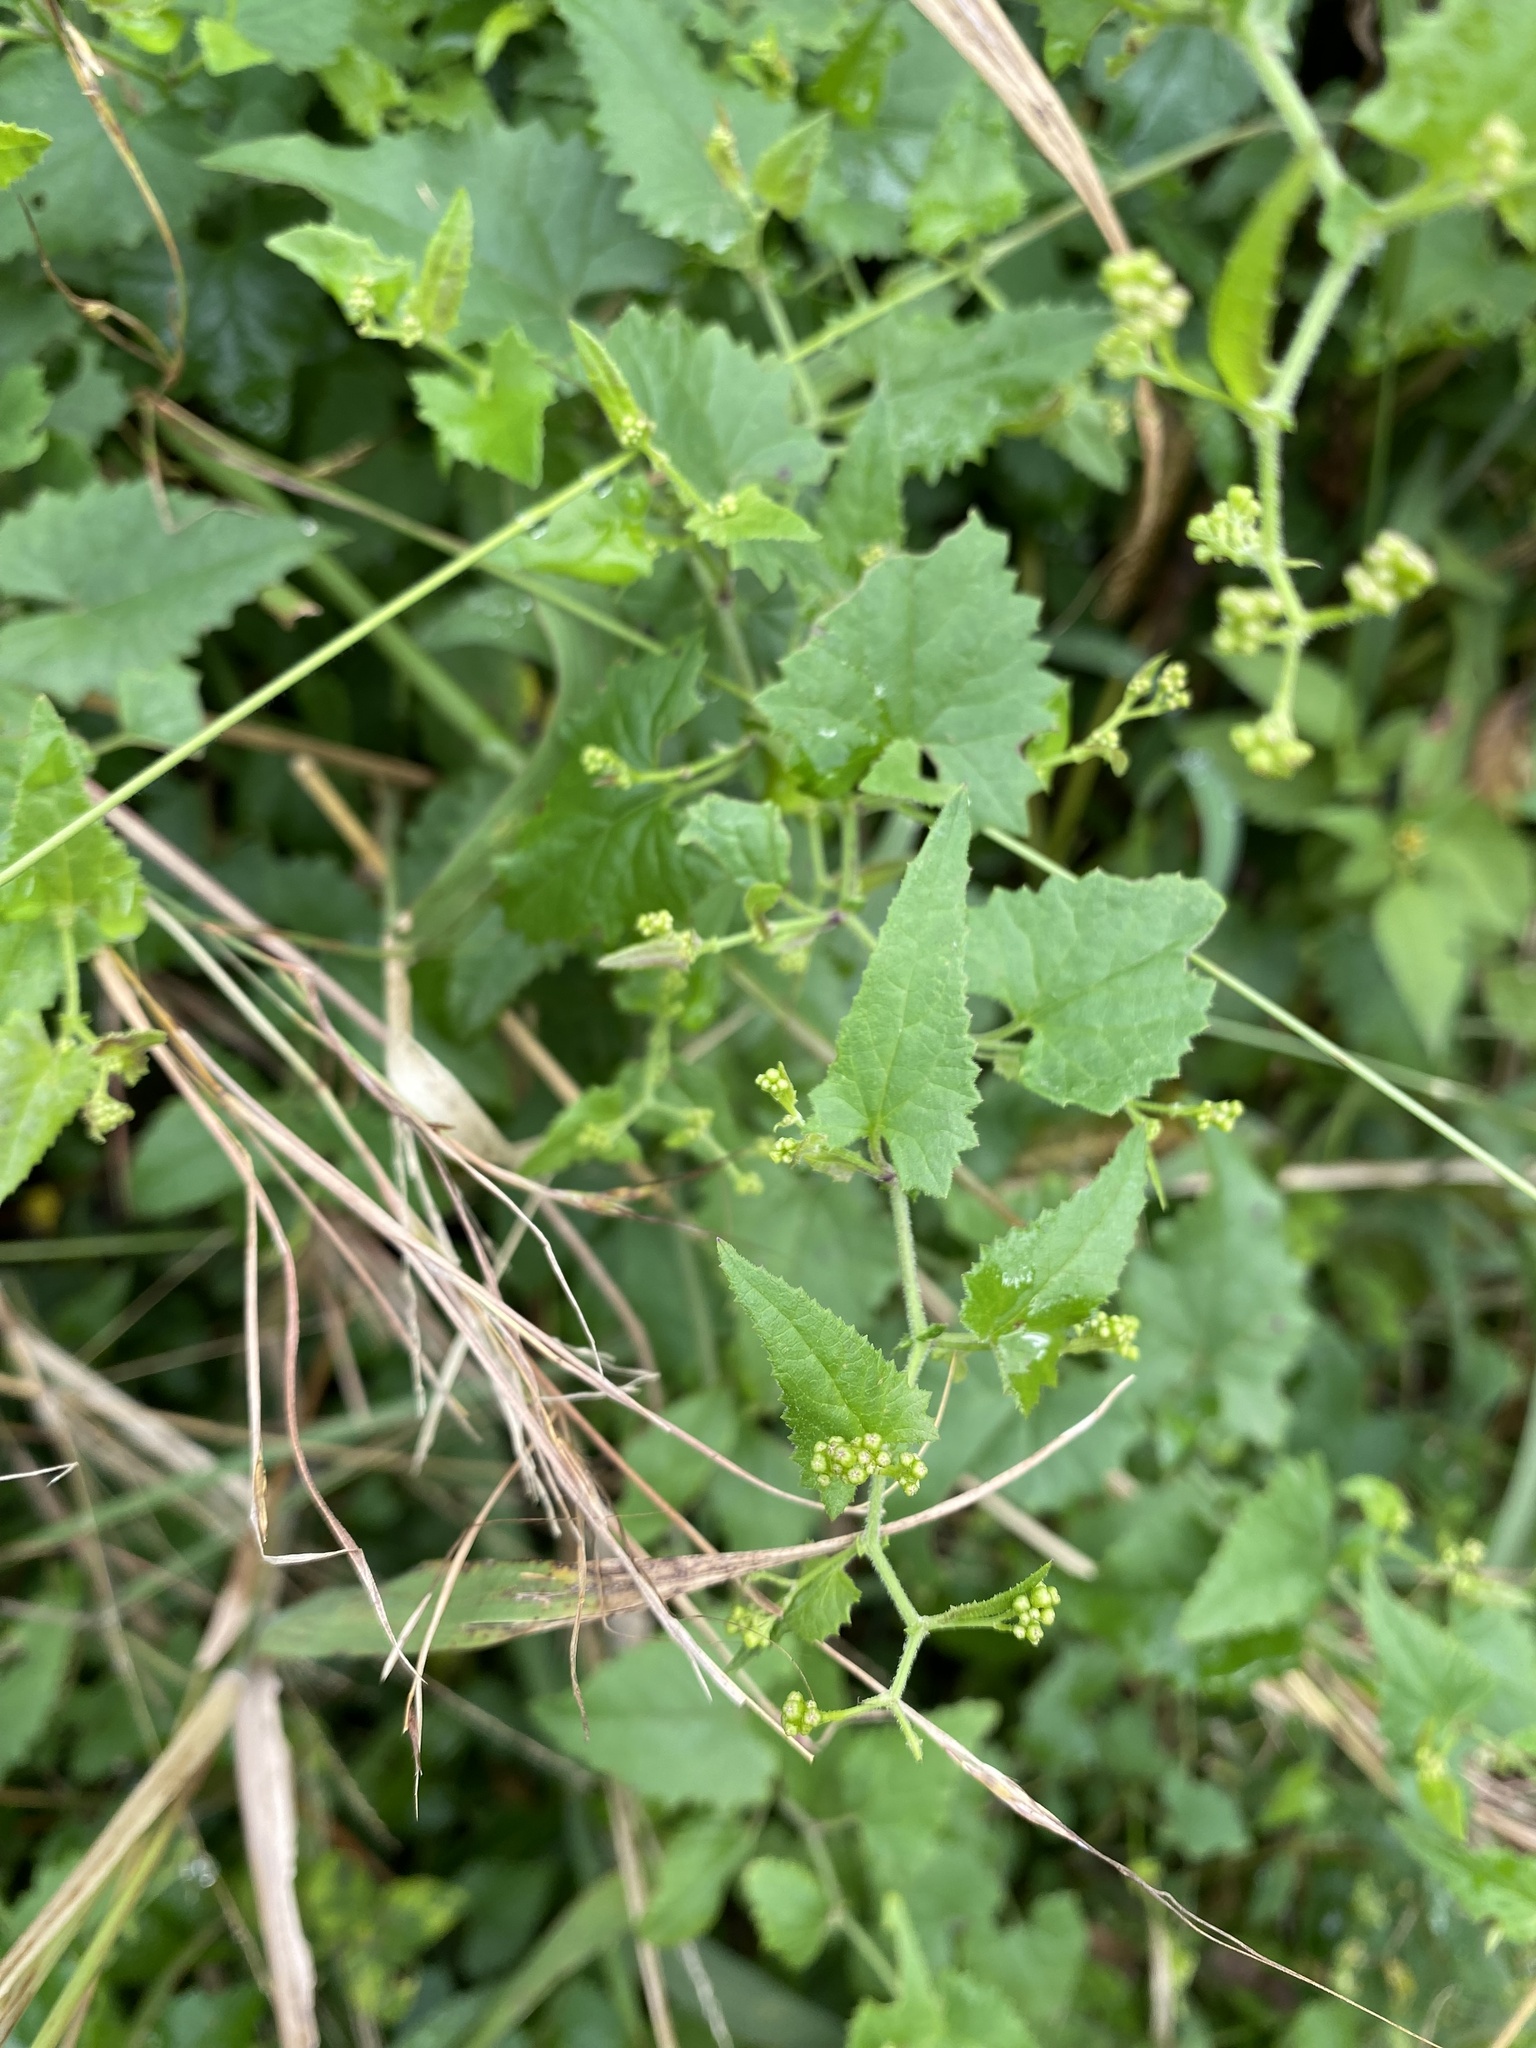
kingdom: Plantae
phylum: Tracheophyta
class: Magnoliopsida
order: Asterales
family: Asteraceae
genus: Senecio
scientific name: Senecio deltoideus
